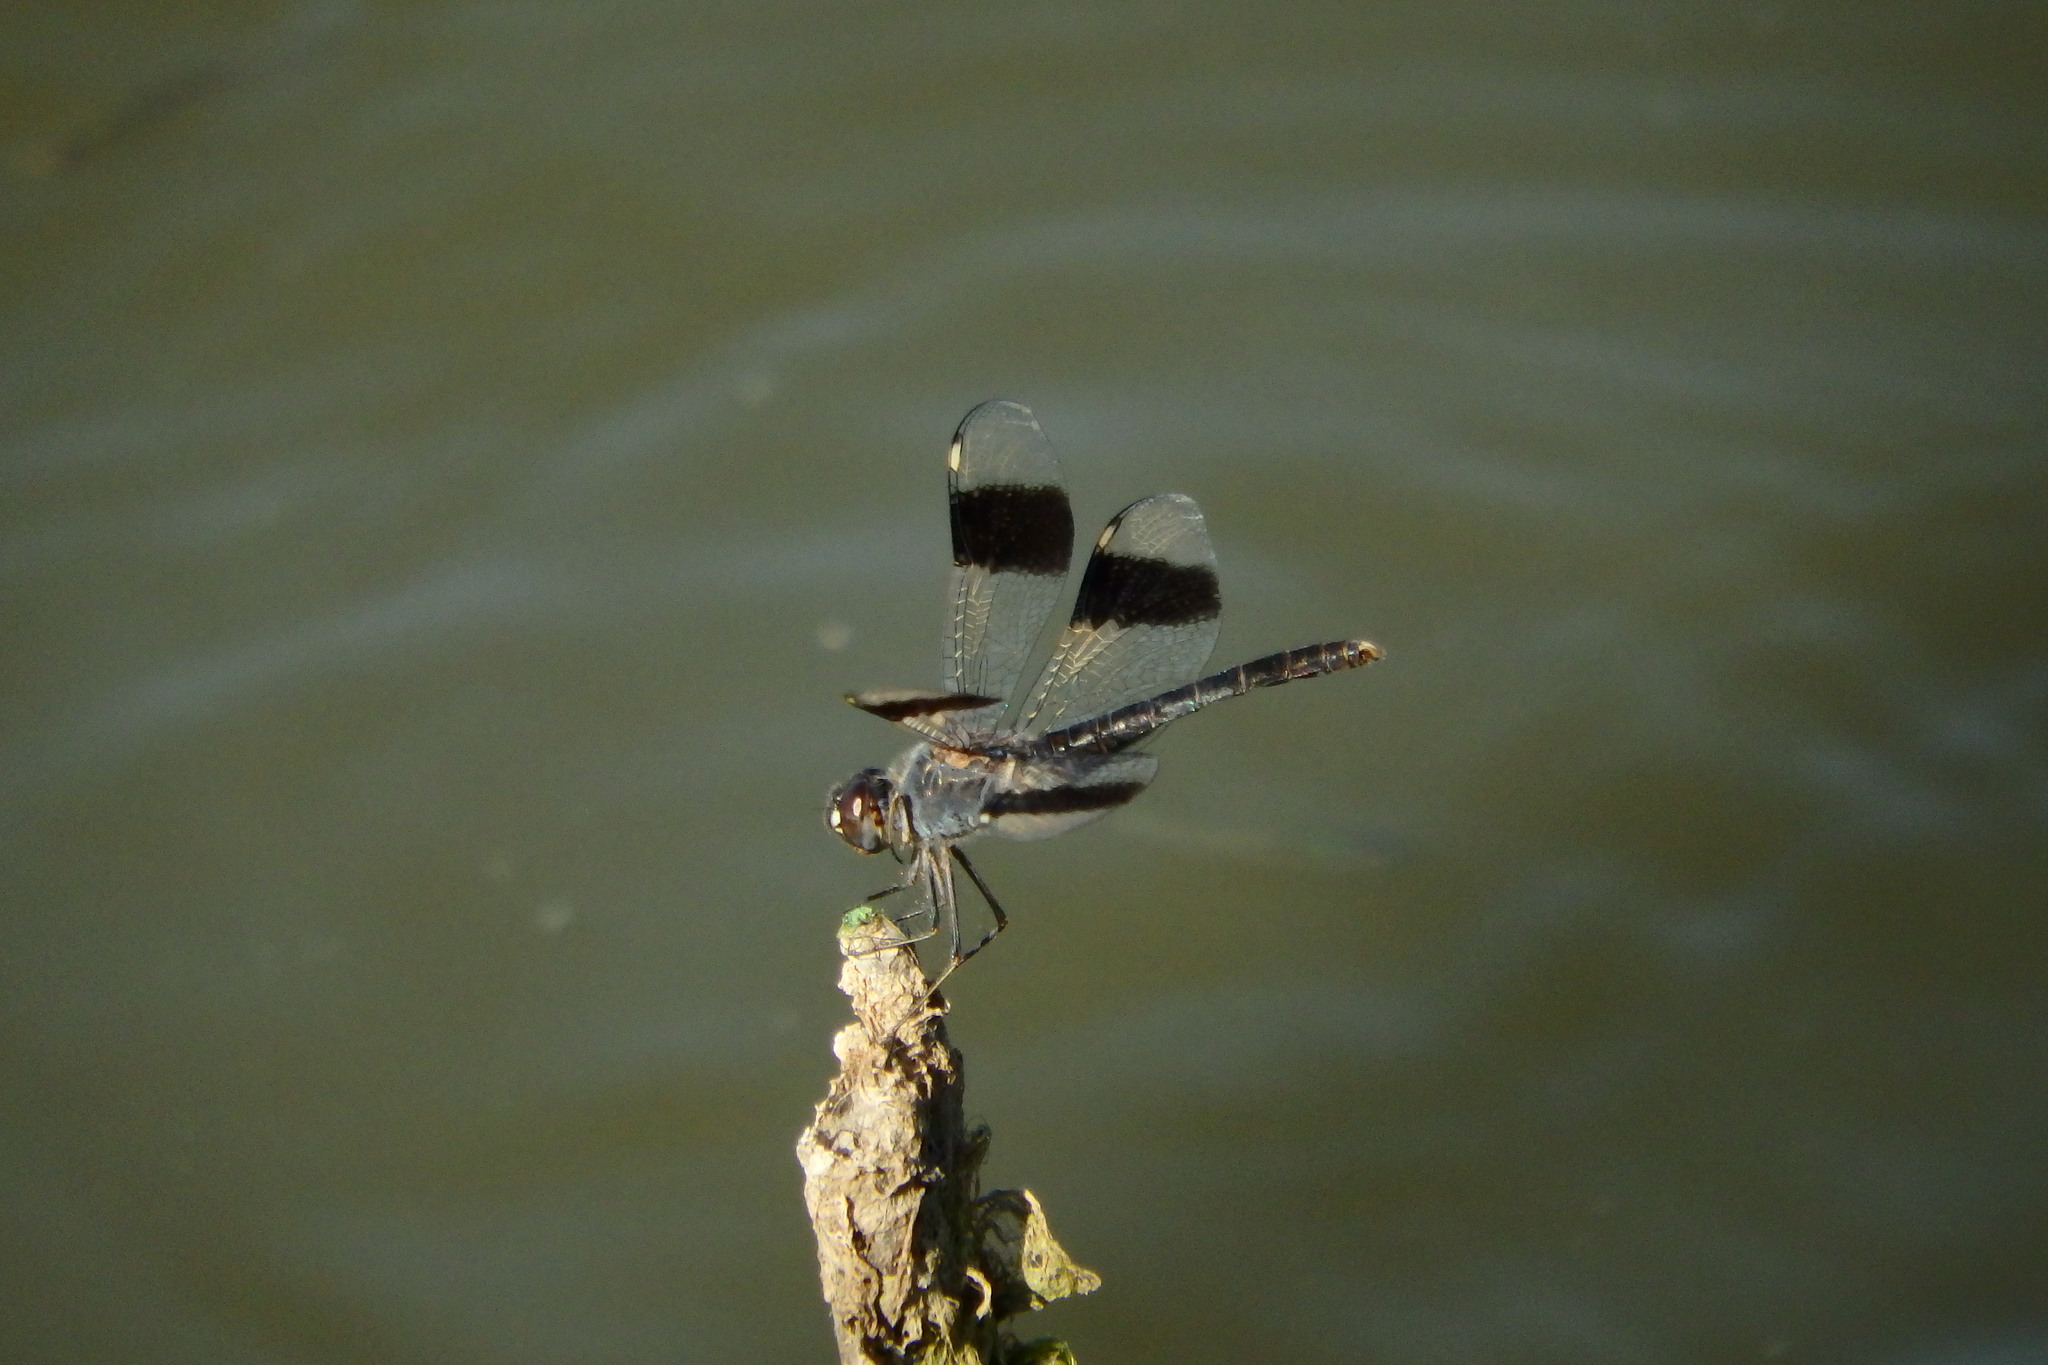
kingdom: Animalia
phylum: Arthropoda
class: Insecta
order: Odonata
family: Libellulidae
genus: Brachythemis
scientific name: Brachythemis impartita
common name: Banded groundling
